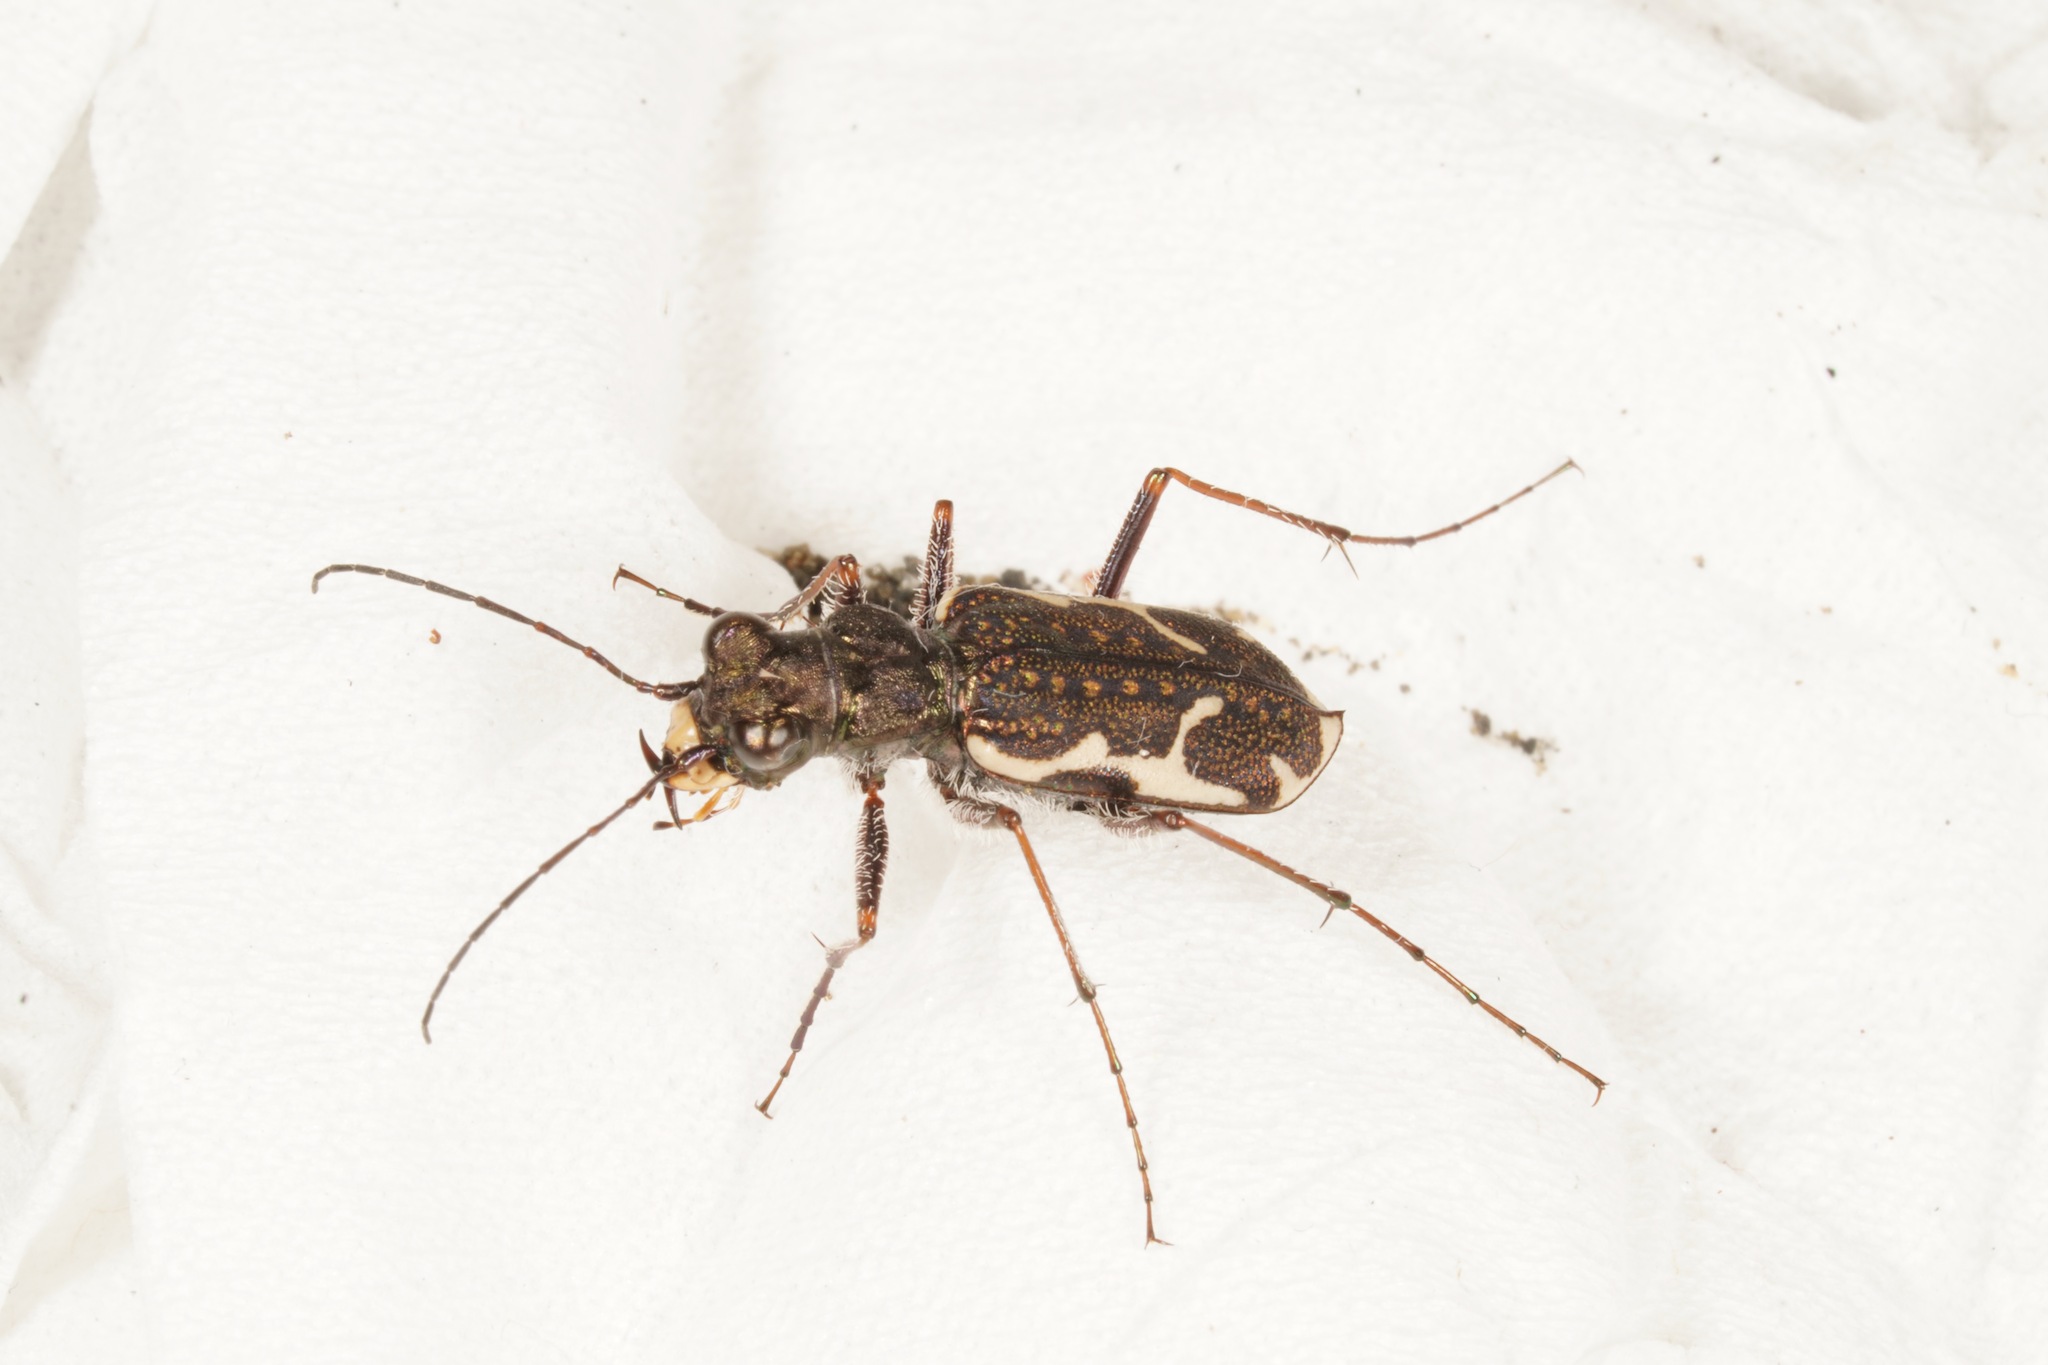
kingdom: Animalia
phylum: Arthropoda
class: Insecta
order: Coleoptera
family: Carabidae
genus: Neocicindela
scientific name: Neocicindela tuberculata
